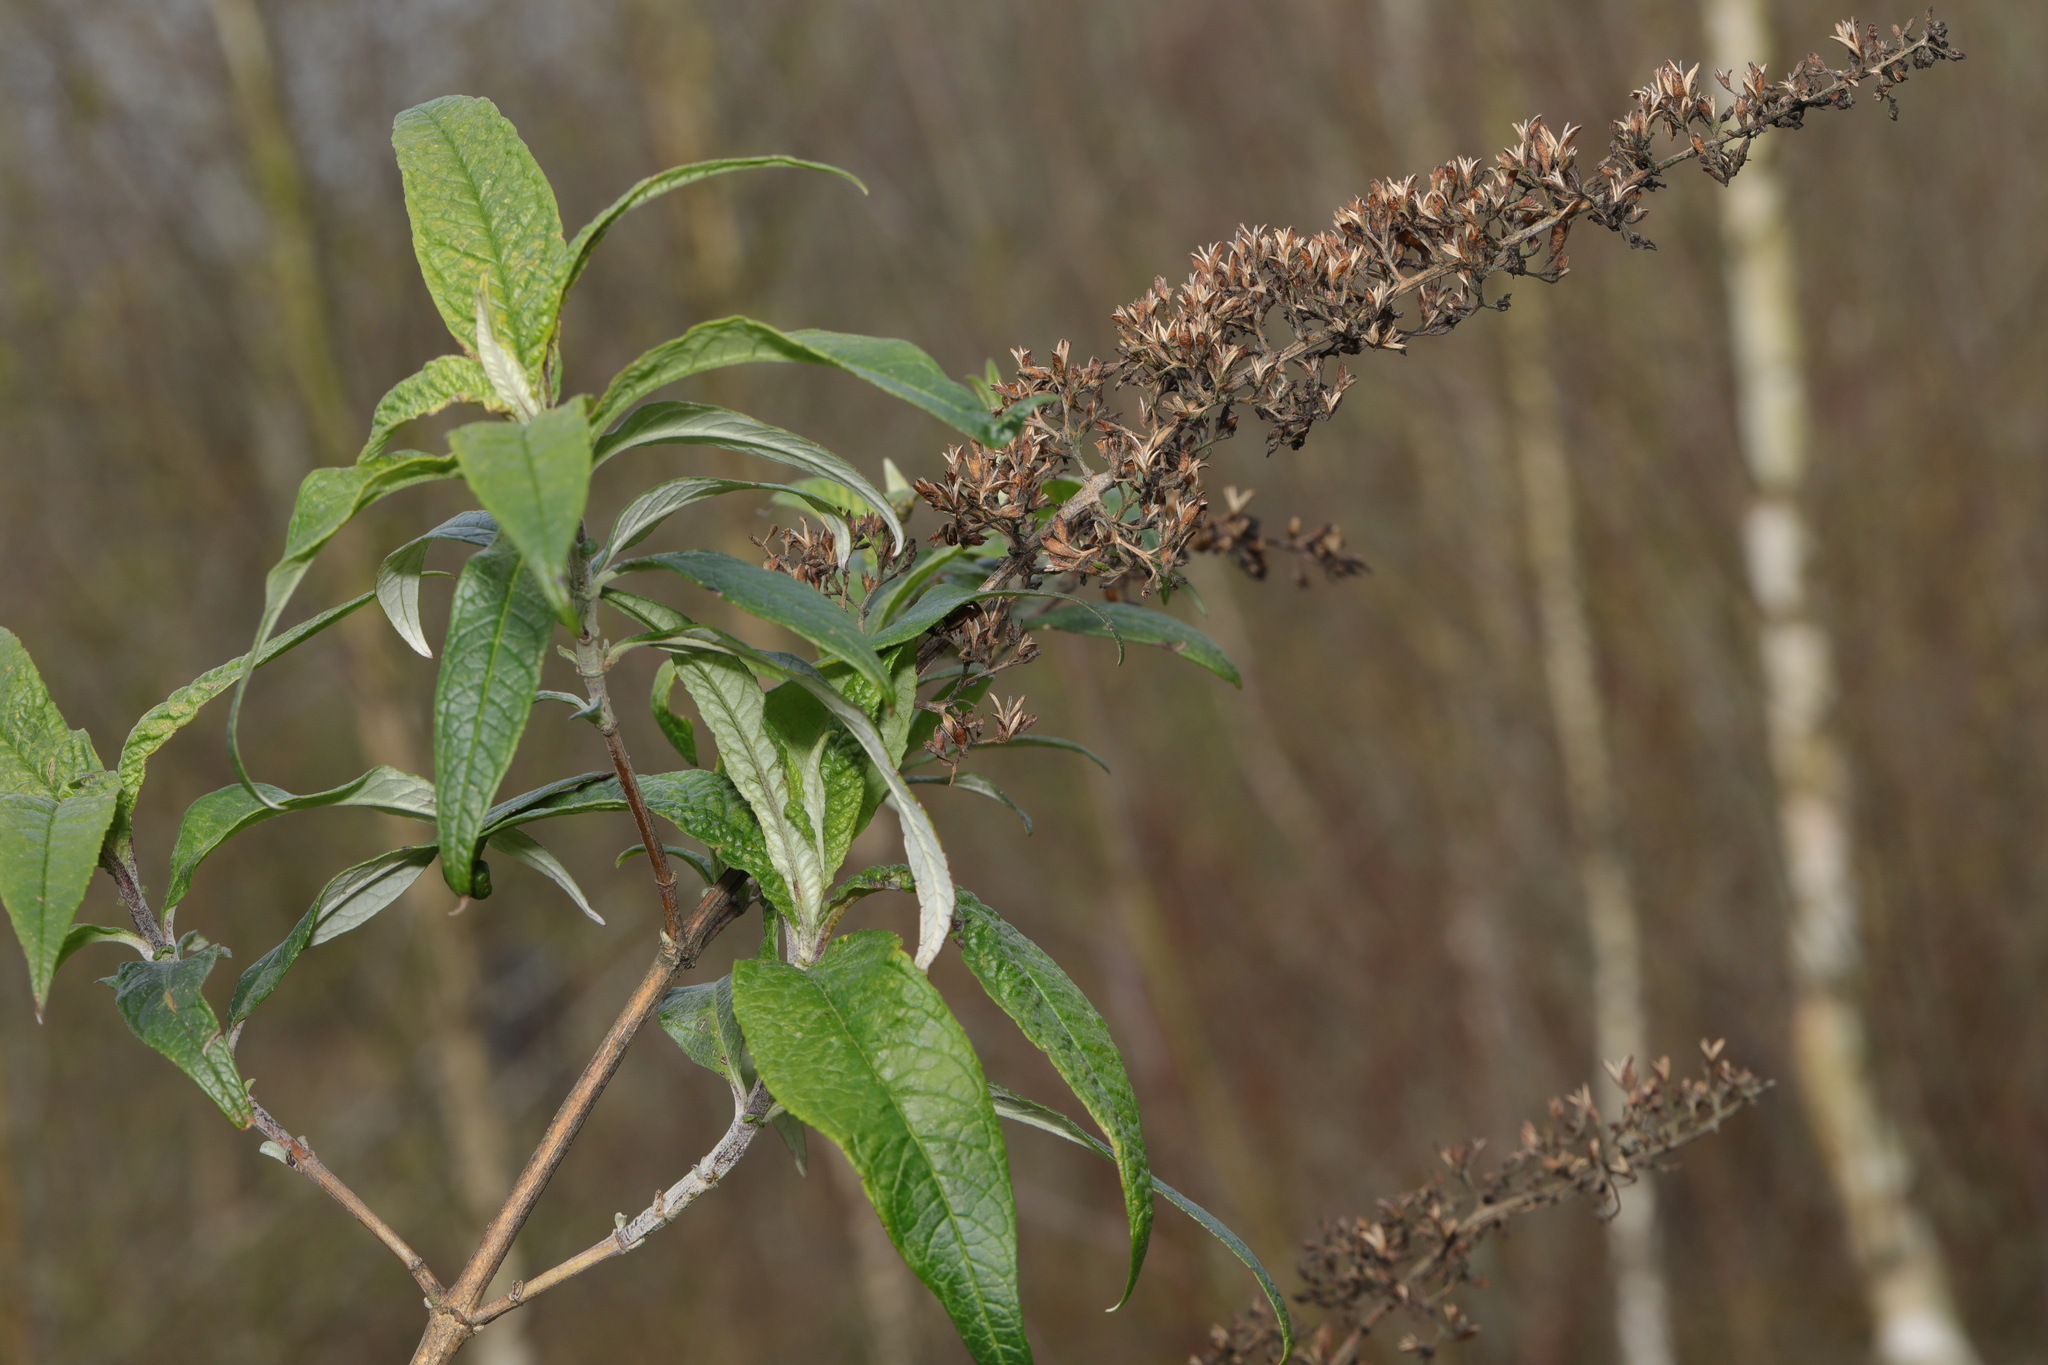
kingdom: Plantae
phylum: Tracheophyta
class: Magnoliopsida
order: Lamiales
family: Scrophulariaceae
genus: Buddleja
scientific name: Buddleja davidii
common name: Butterfly-bush
